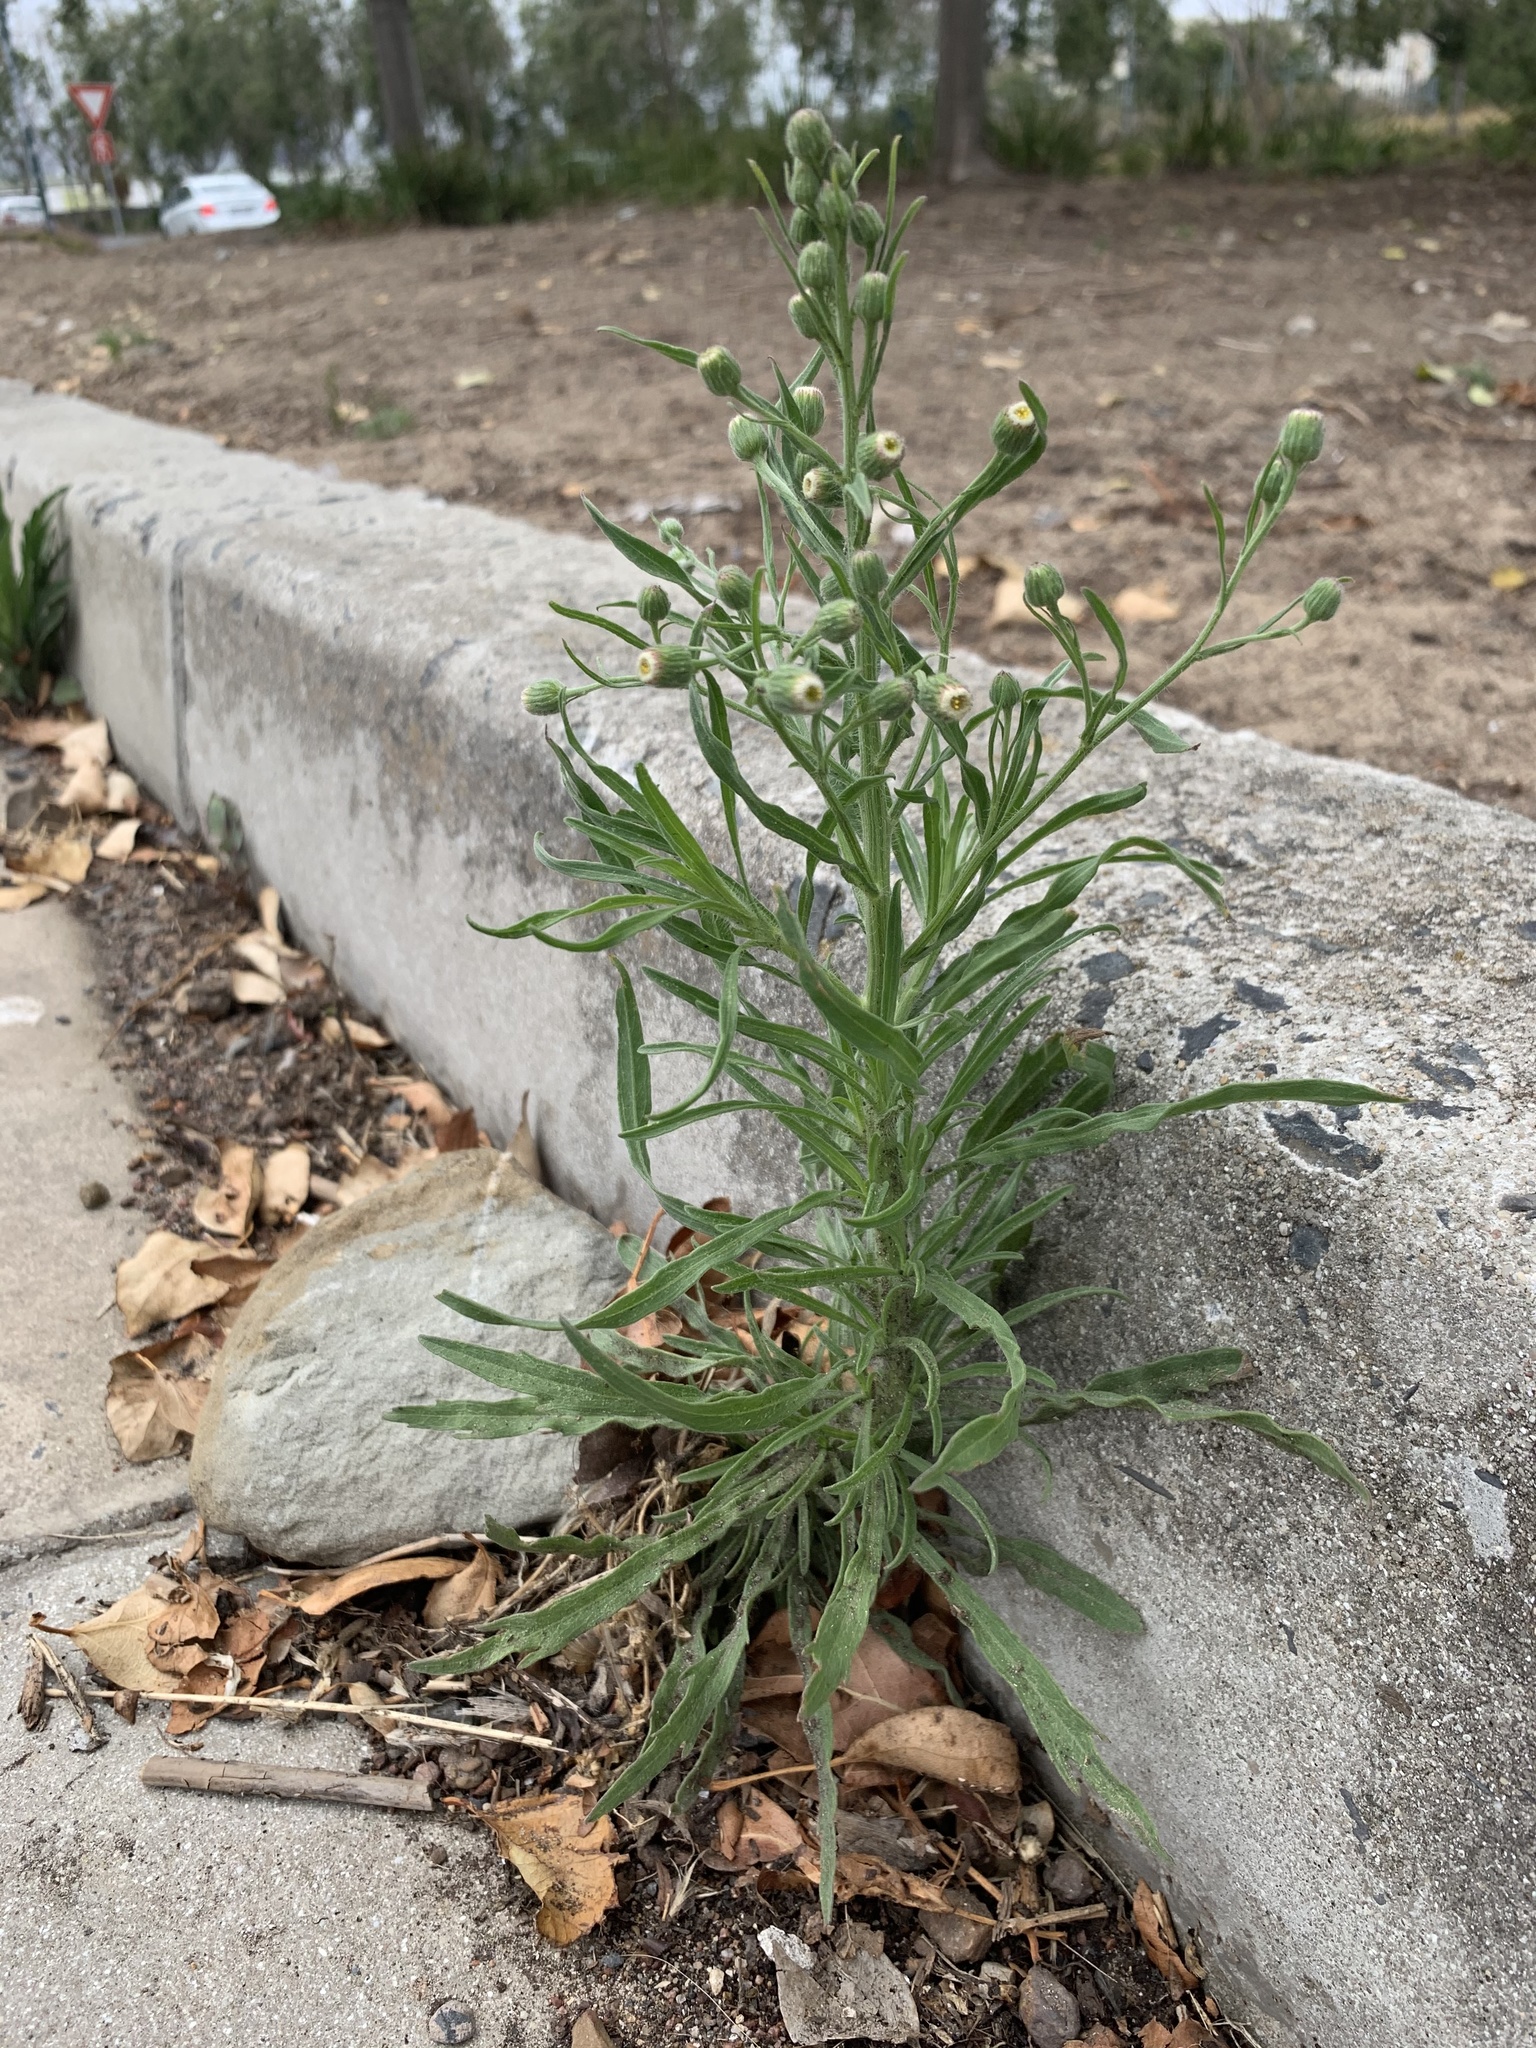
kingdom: Plantae
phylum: Tracheophyta
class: Magnoliopsida
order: Asterales
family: Asteraceae
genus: Erigeron
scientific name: Erigeron bonariensis
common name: Argentine fleabane
